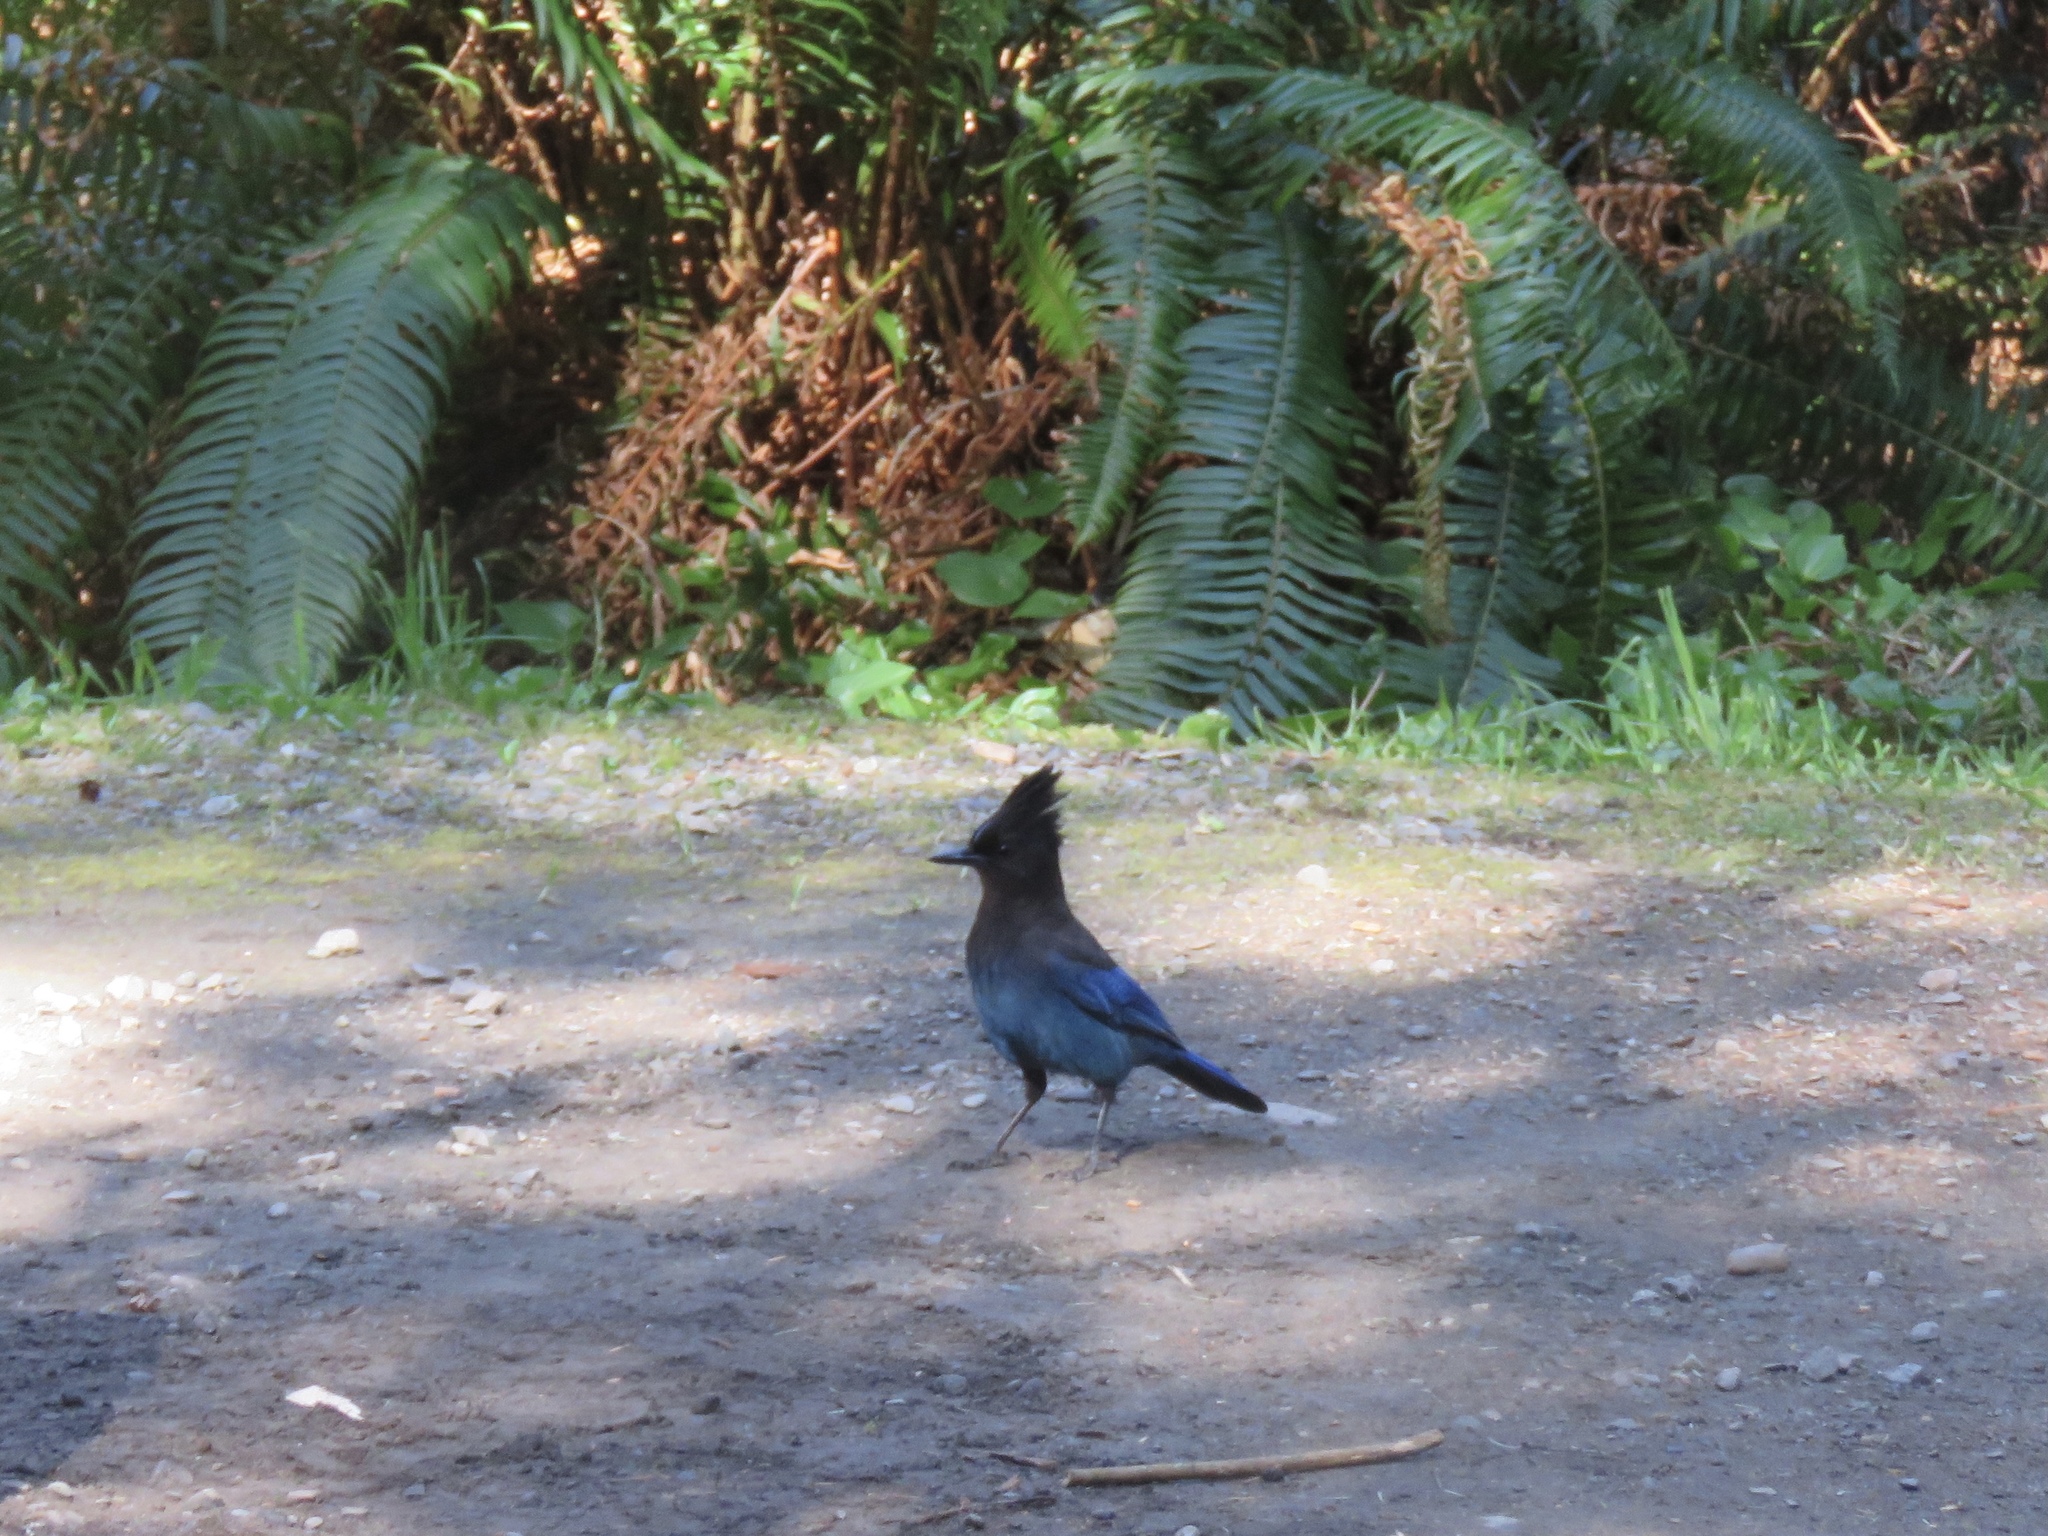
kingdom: Animalia
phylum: Chordata
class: Aves
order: Passeriformes
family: Corvidae
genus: Cyanocitta
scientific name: Cyanocitta stelleri
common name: Steller's jay
